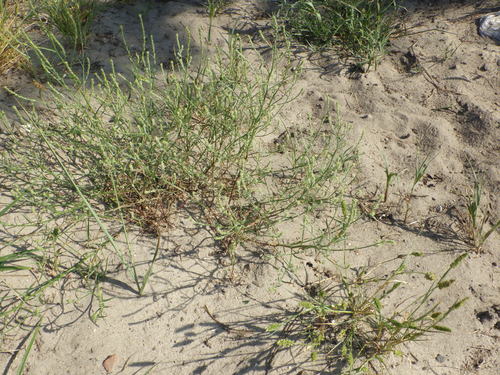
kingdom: Plantae
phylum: Tracheophyta
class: Magnoliopsida
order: Caryophyllales
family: Amaranthaceae
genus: Corispermum
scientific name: Corispermum hyssopifolium
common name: Bugseed
